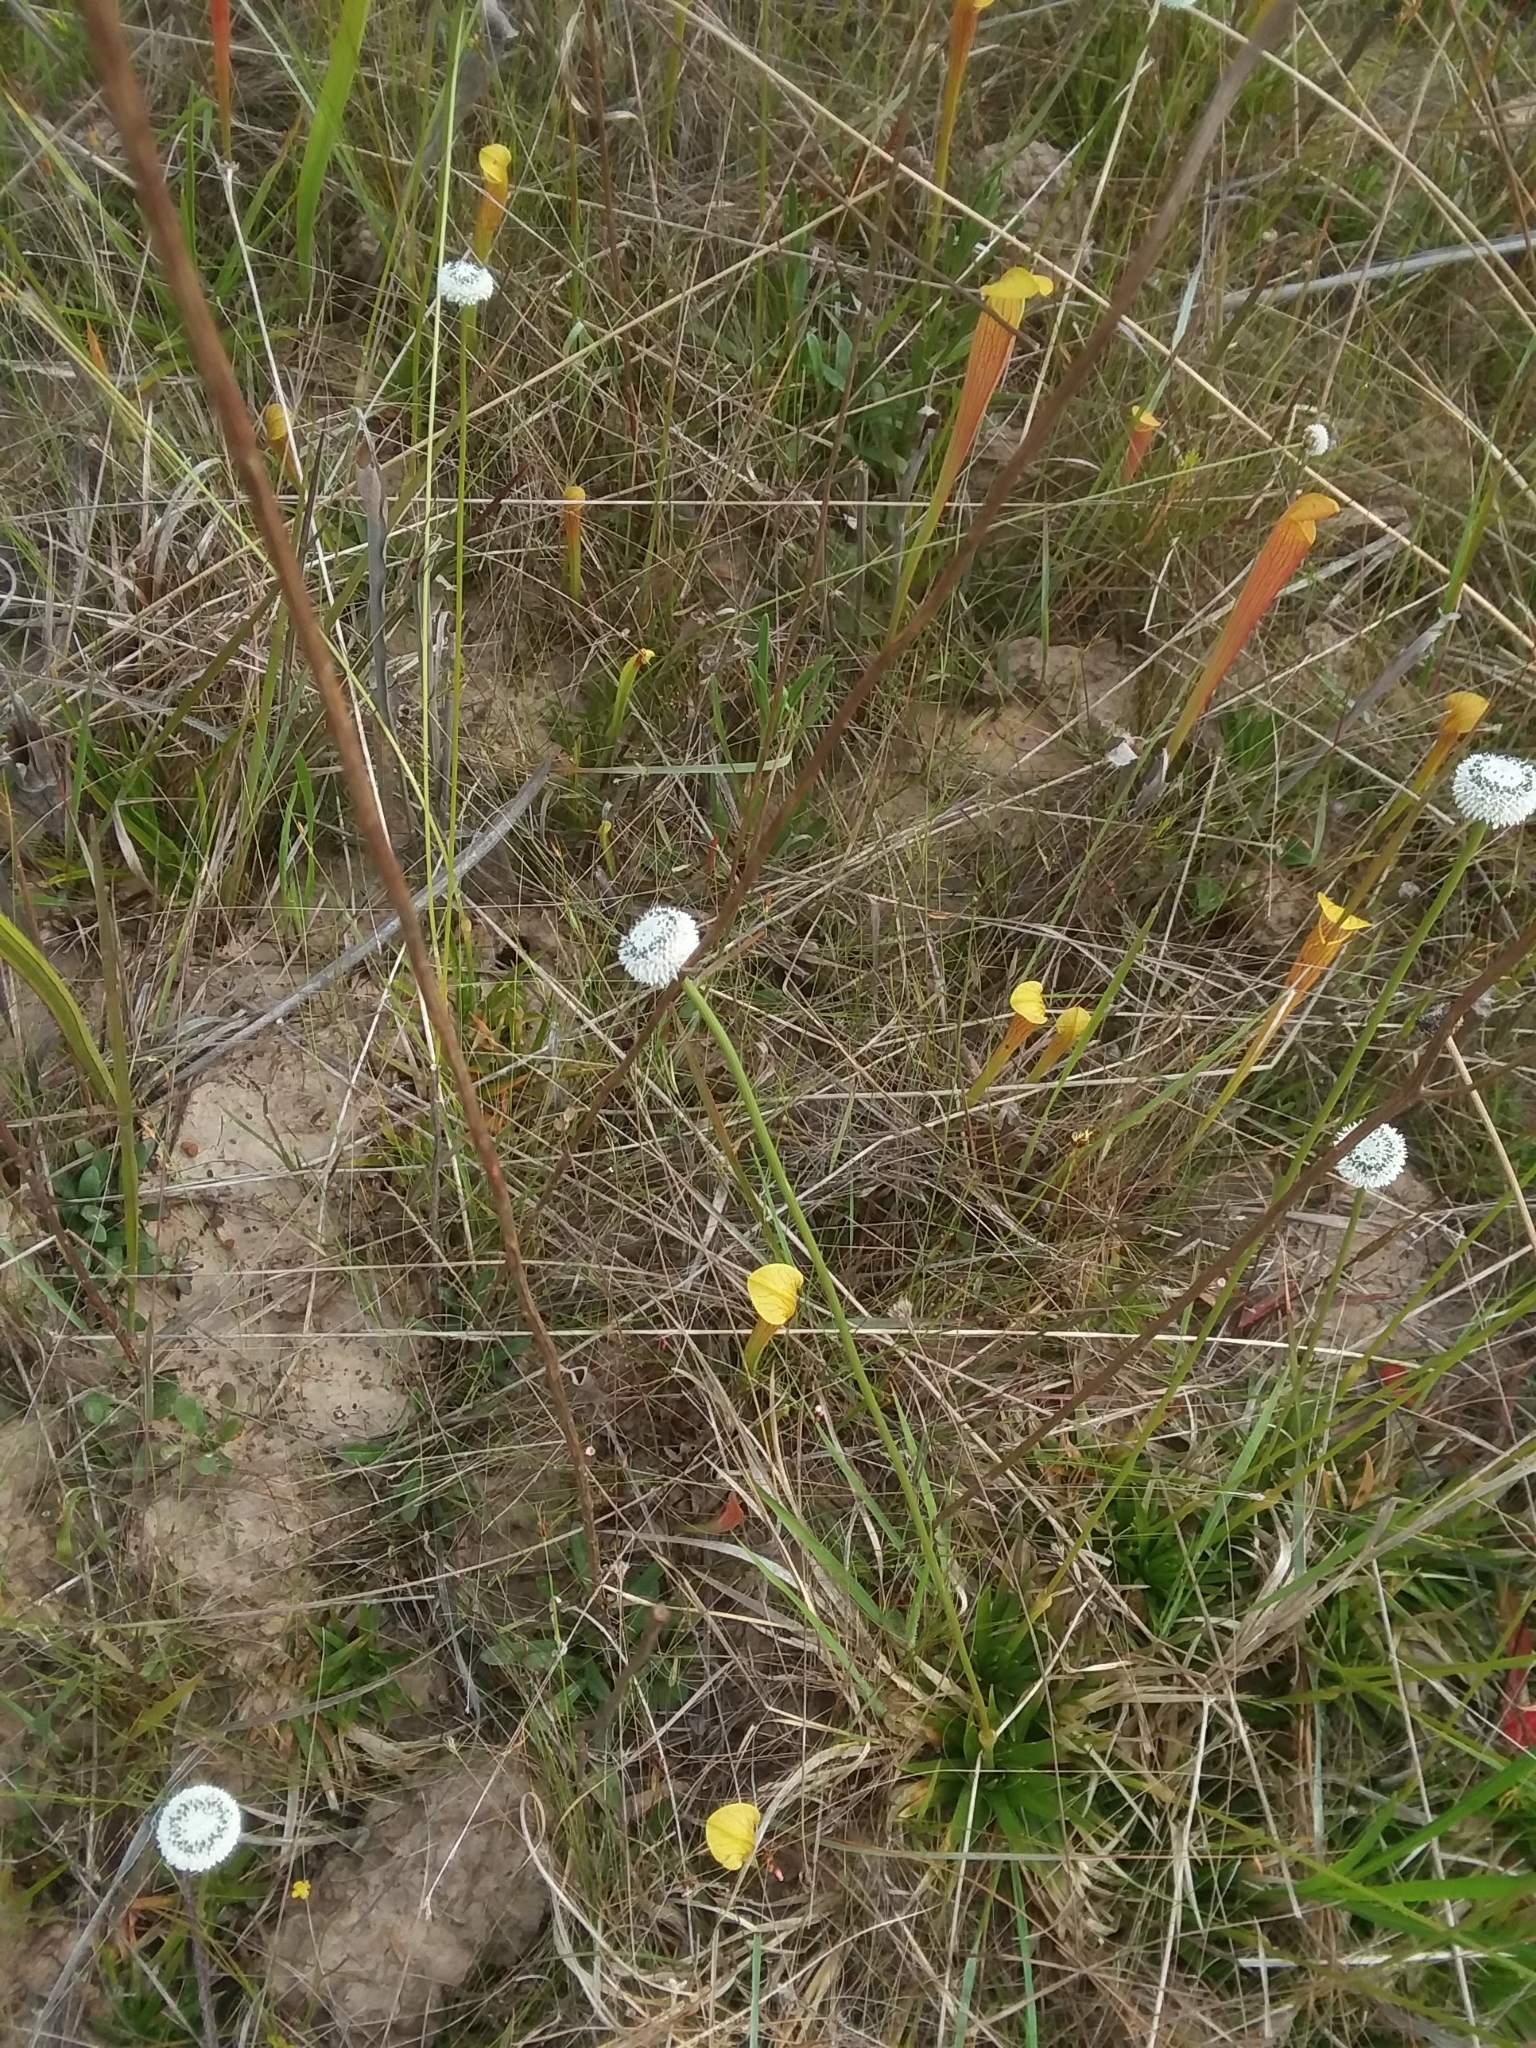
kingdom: Plantae
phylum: Tracheophyta
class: Liliopsida
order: Poales
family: Eriocaulaceae
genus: Eriocaulon
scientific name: Eriocaulon compressum
